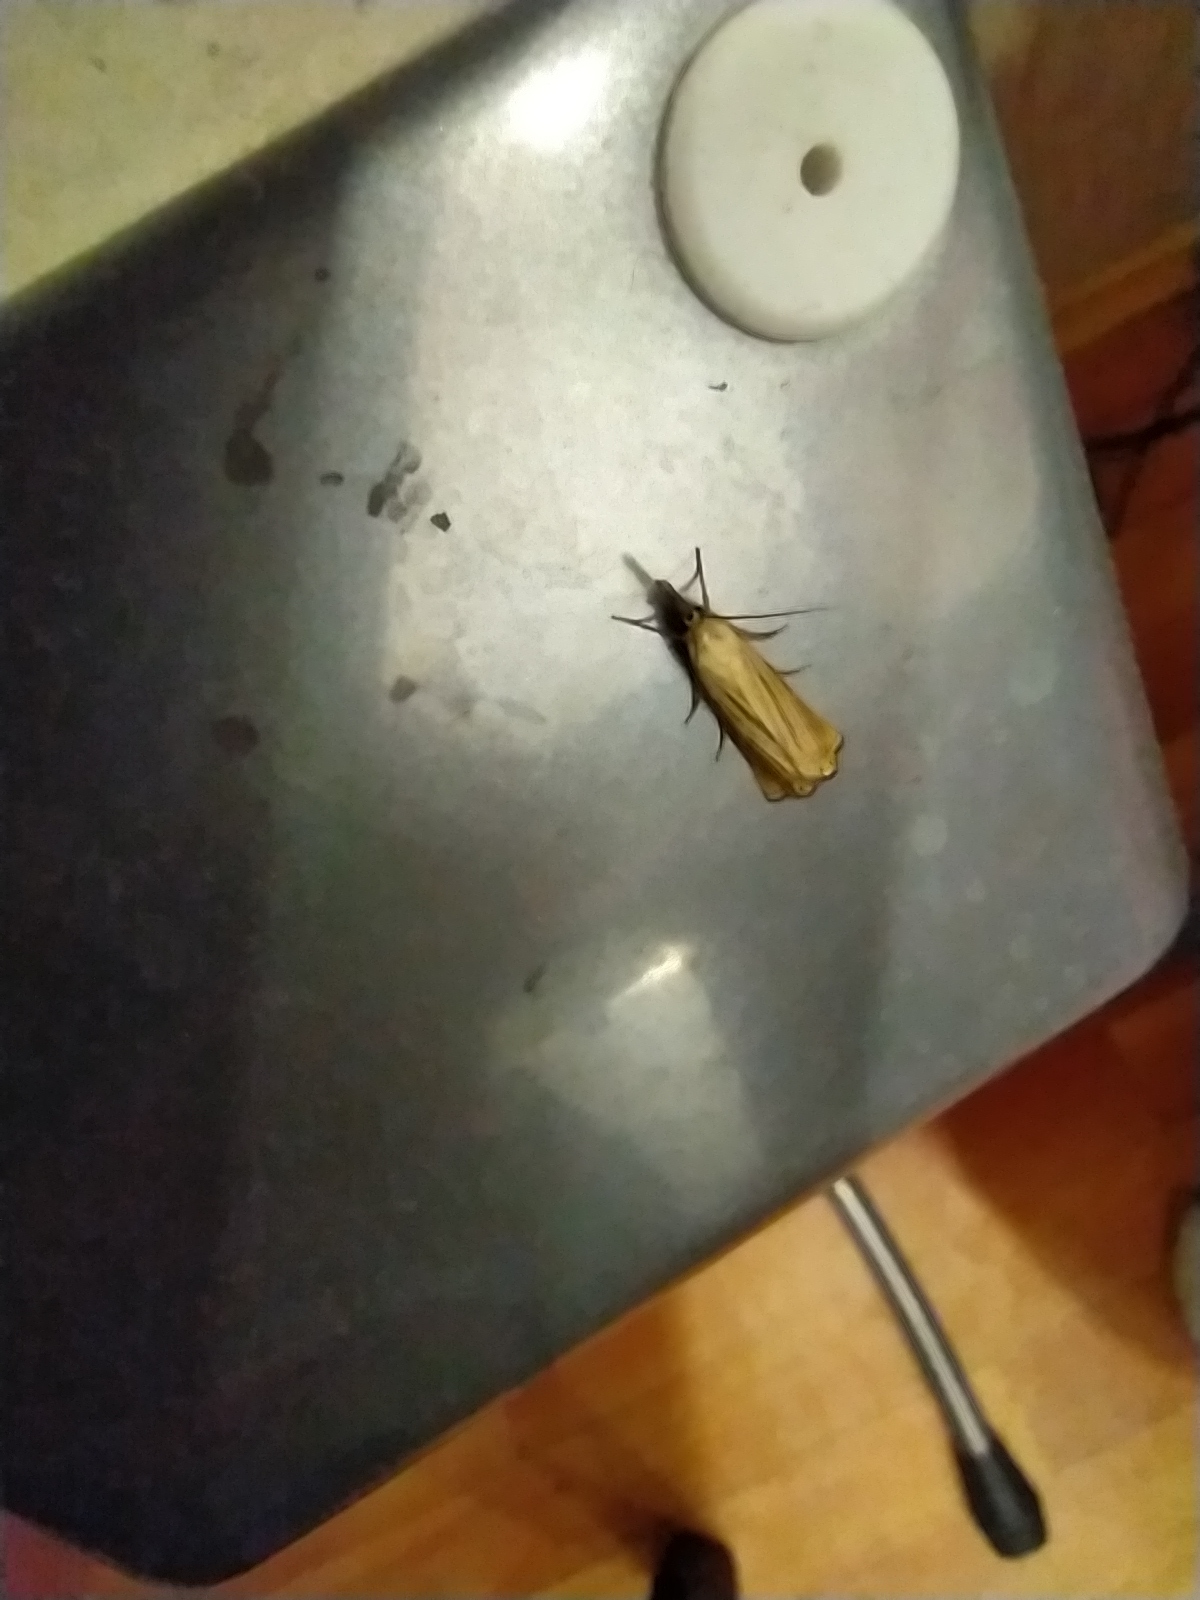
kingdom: Animalia
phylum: Arthropoda
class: Insecta
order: Lepidoptera
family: Crambidae
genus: Chrysoteuchia
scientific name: Chrysoteuchia culmella
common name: Garden grass-veneer
